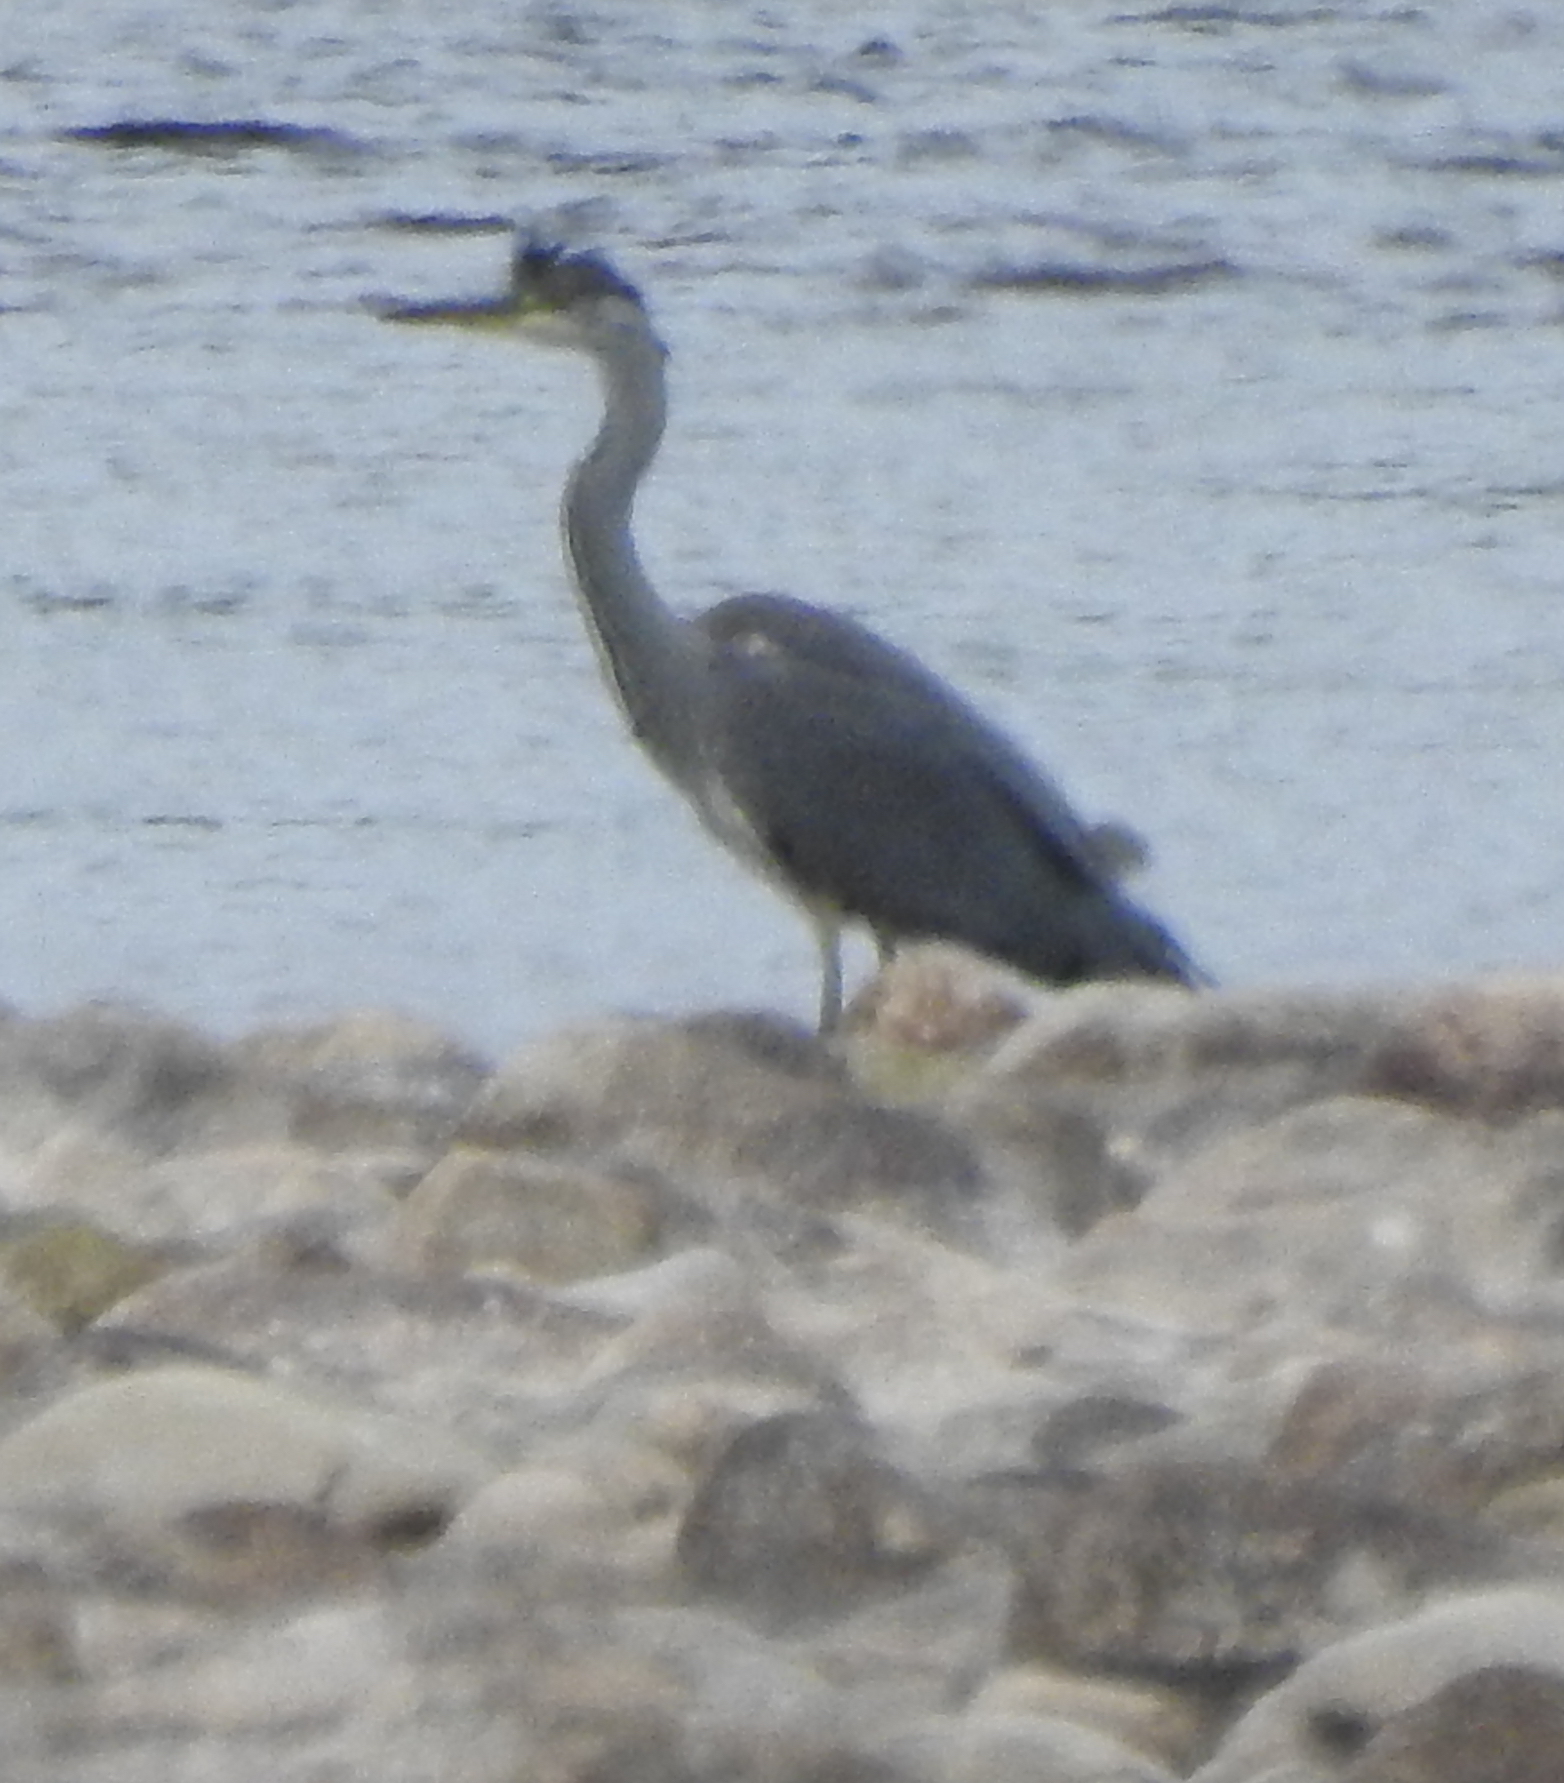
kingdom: Animalia
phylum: Chordata
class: Aves
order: Pelecaniformes
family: Ardeidae
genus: Ardea
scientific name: Ardea cinerea
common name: Grey heron
